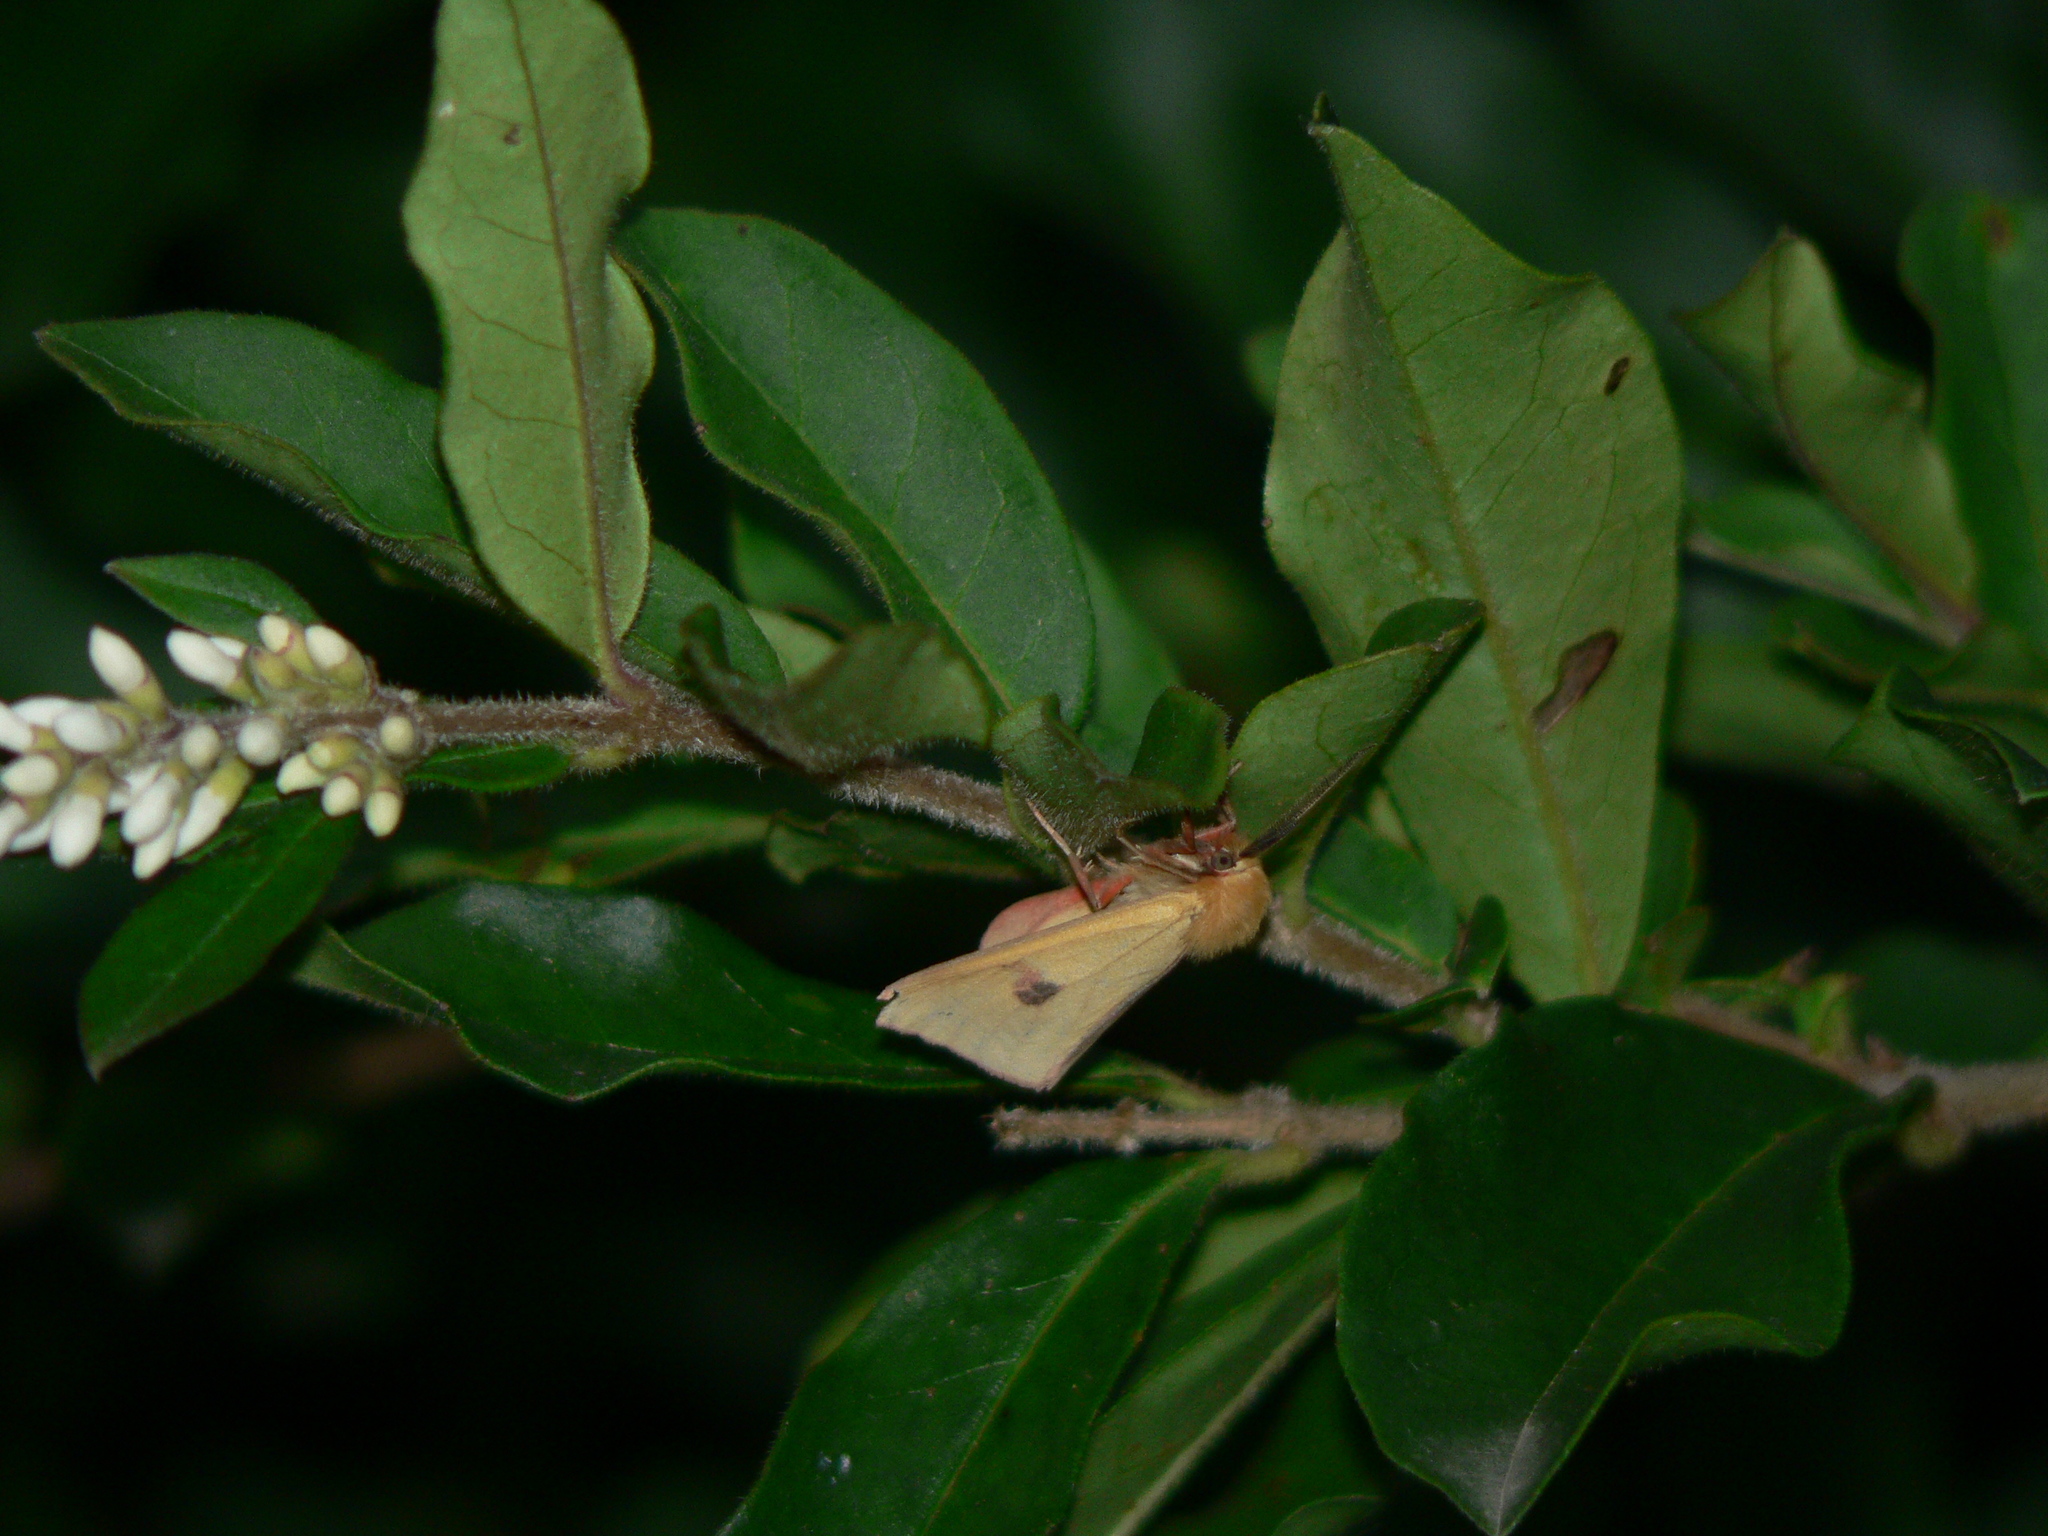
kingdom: Animalia
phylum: Arthropoda
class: Insecta
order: Lepidoptera
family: Erebidae
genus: Diacrisia
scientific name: Diacrisia sannio
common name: Clouded buff
